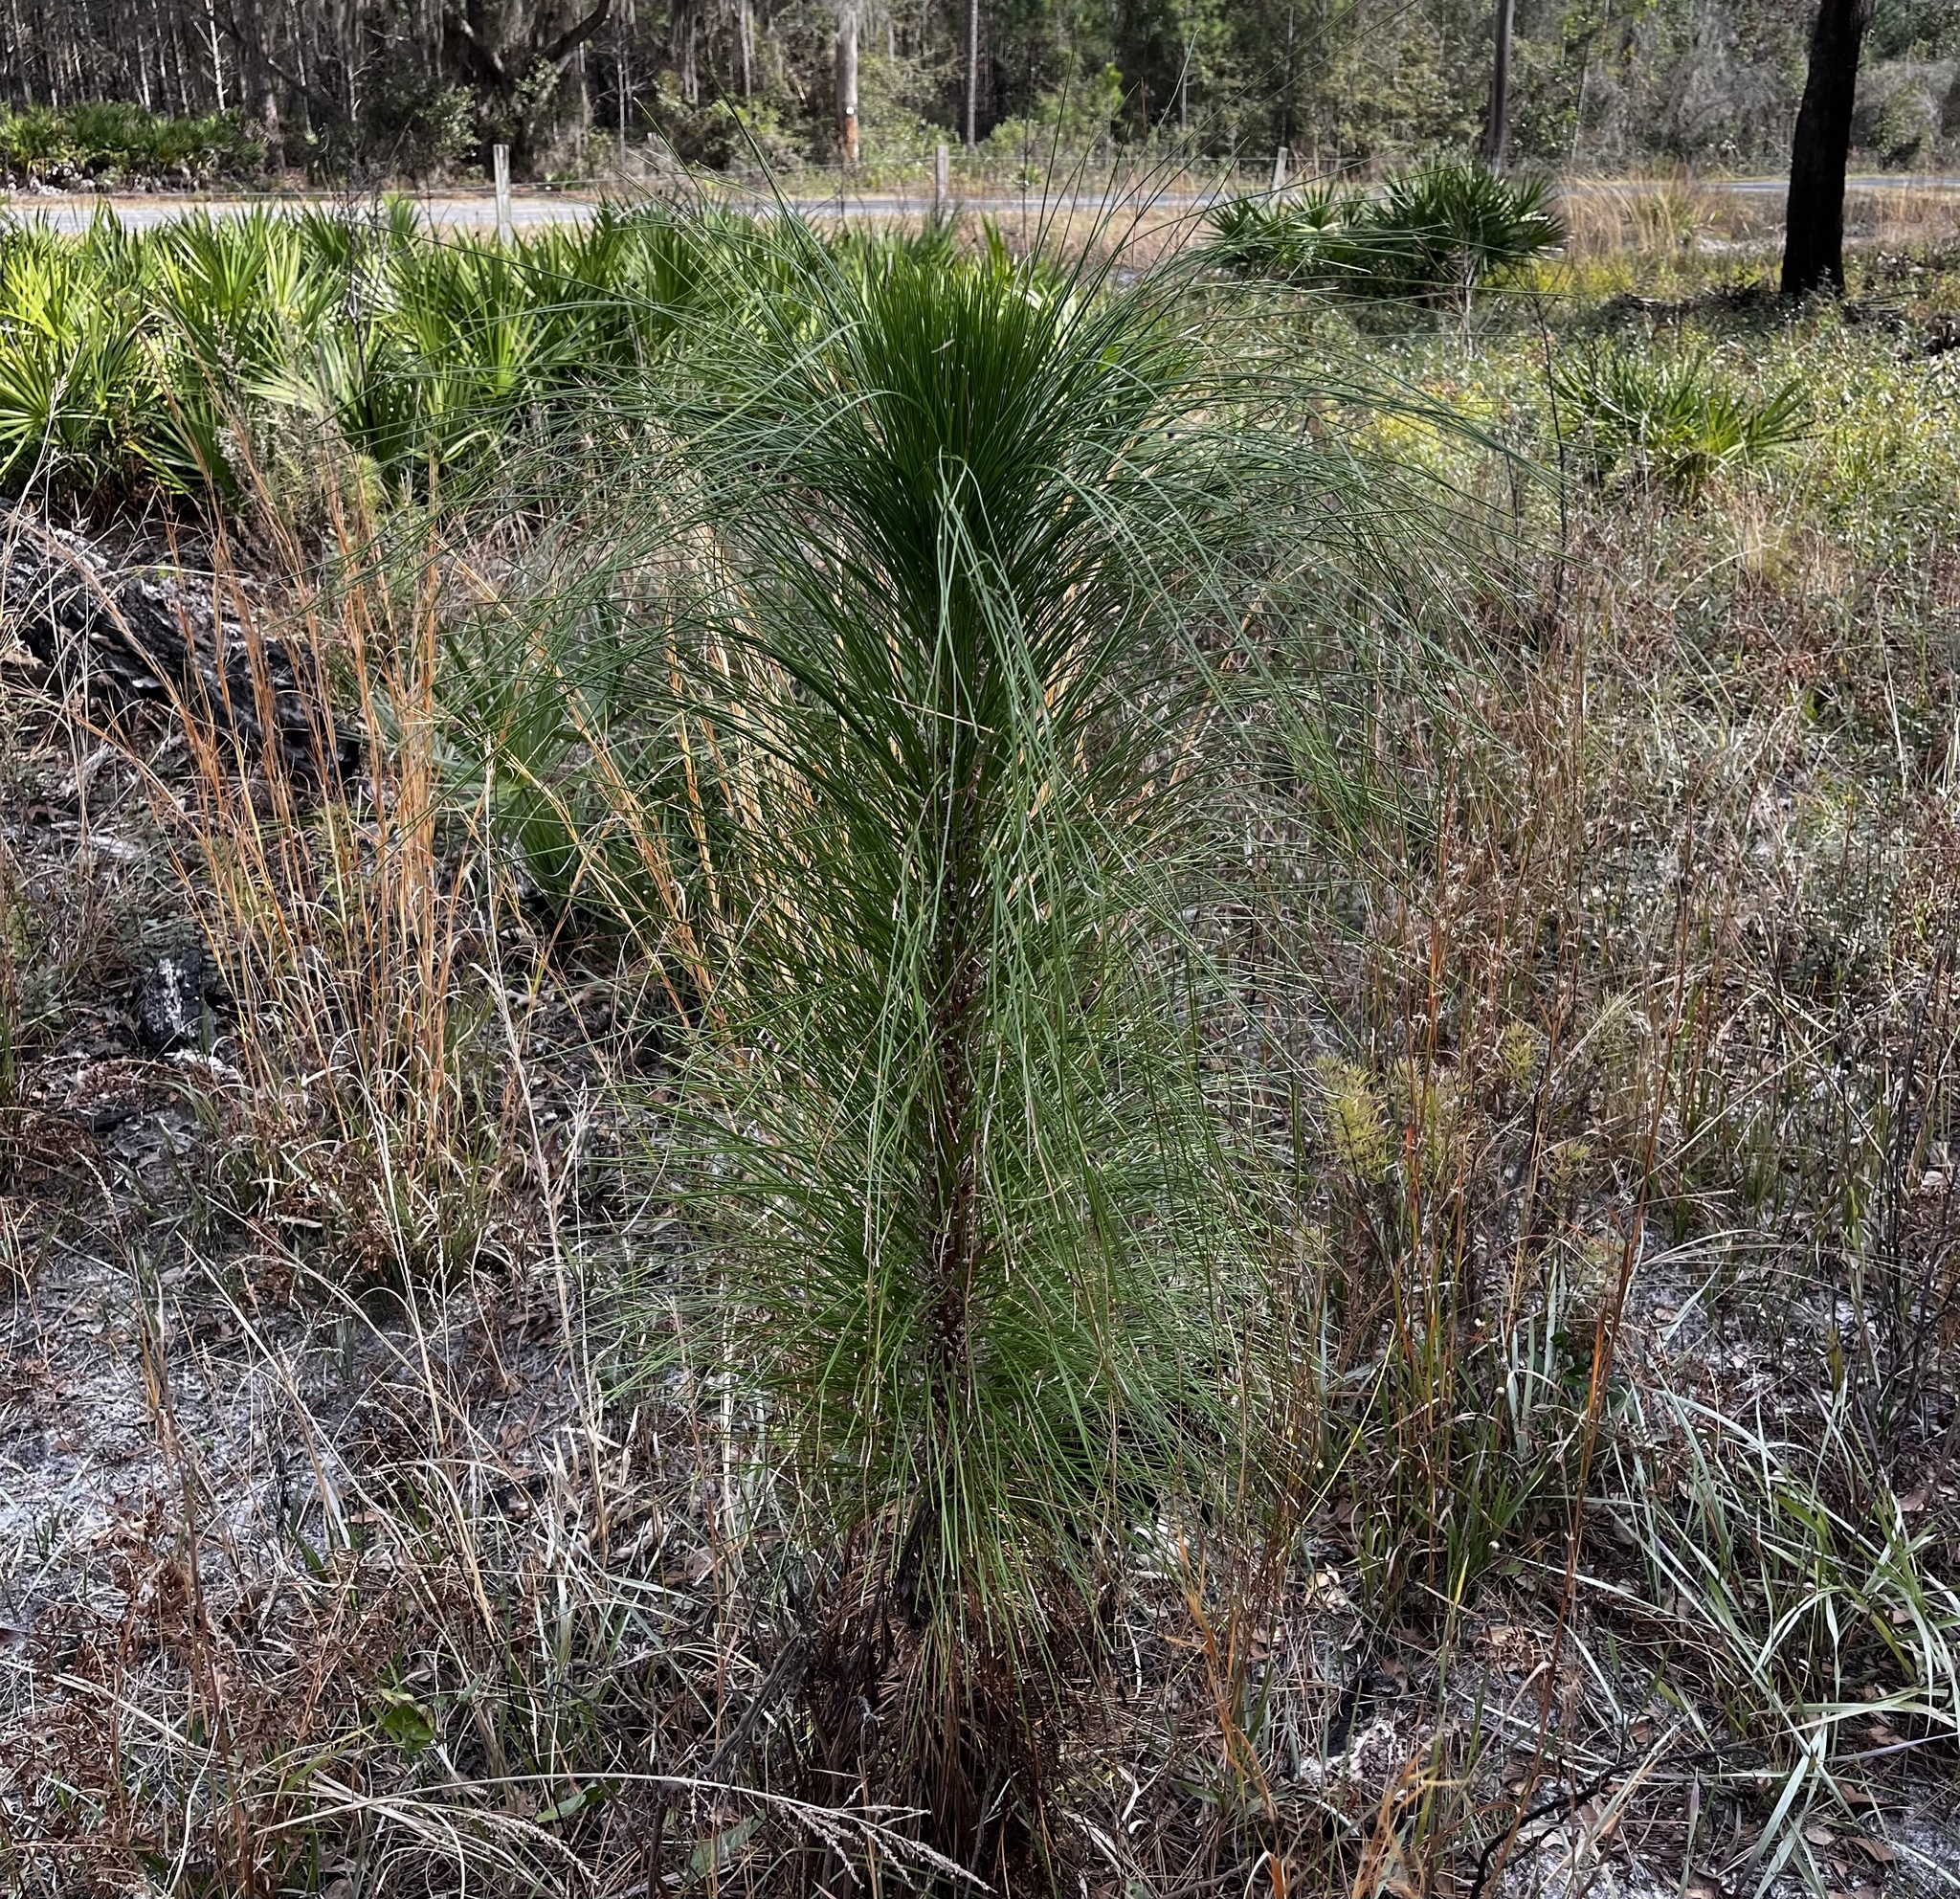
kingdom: Plantae
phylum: Tracheophyta
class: Pinopsida
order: Pinales
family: Pinaceae
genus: Pinus
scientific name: Pinus palustris
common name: Longleaf pine
